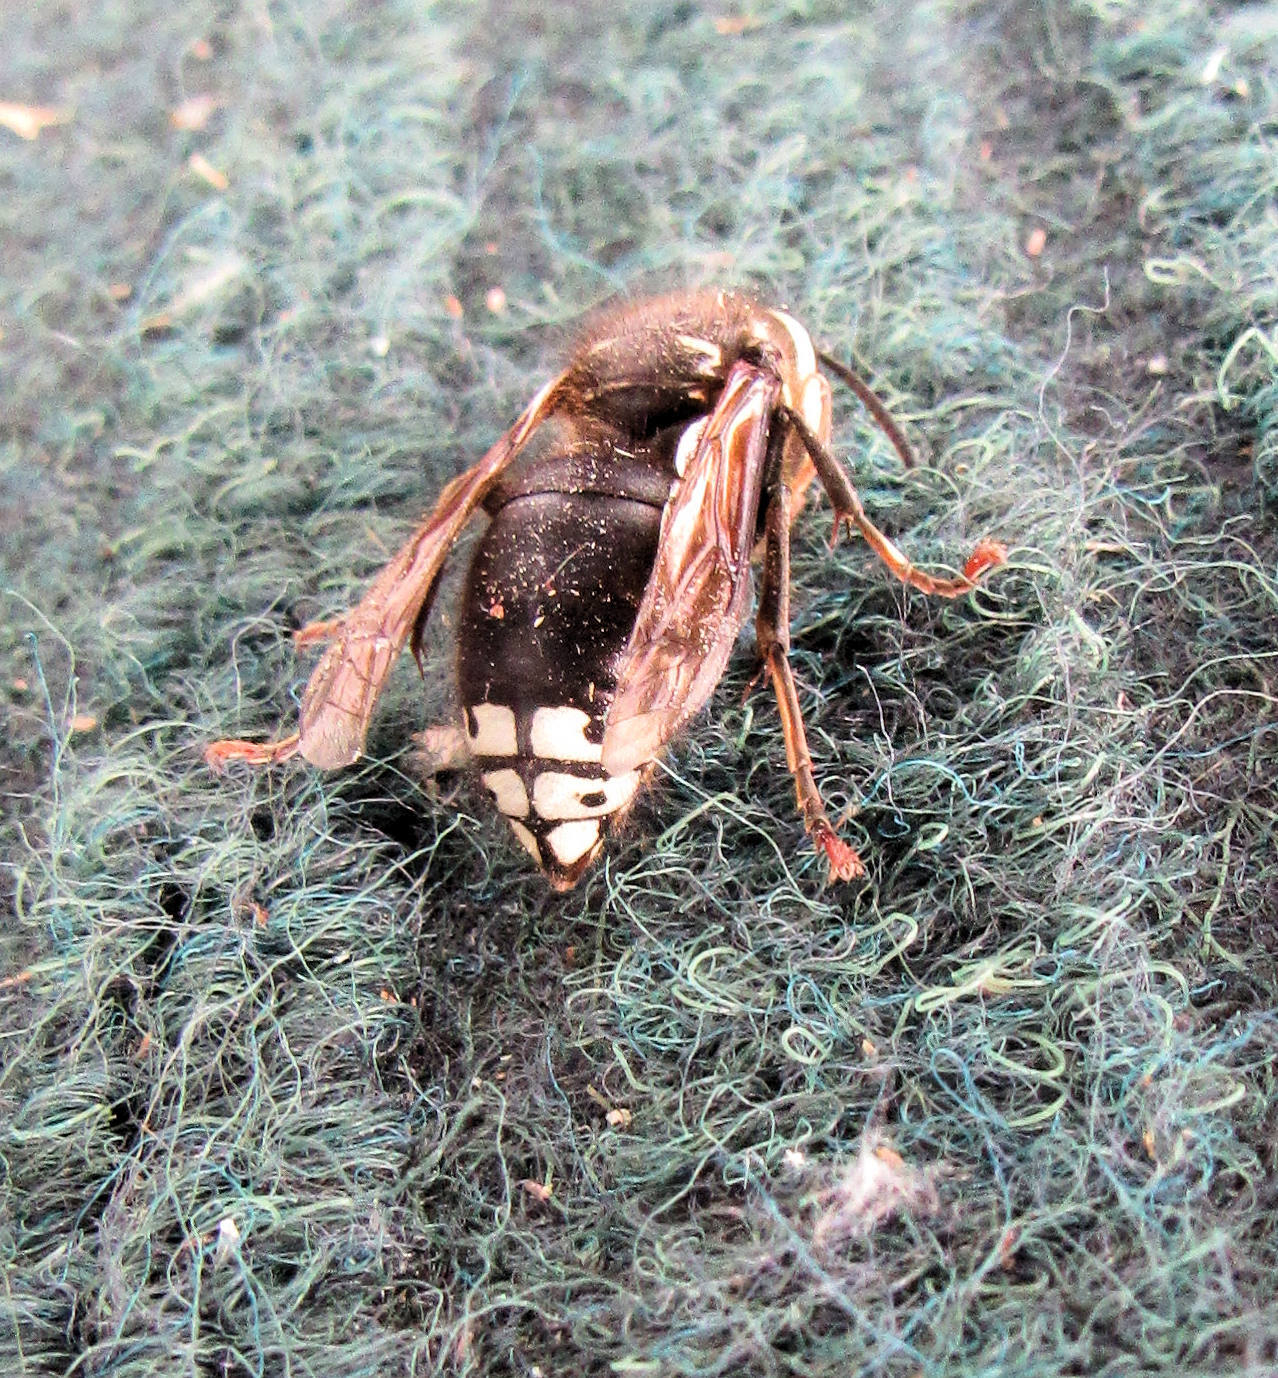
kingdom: Animalia
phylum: Arthropoda
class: Insecta
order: Hymenoptera
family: Vespidae
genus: Dolichovespula
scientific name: Dolichovespula maculata
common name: Bald-faced hornet
